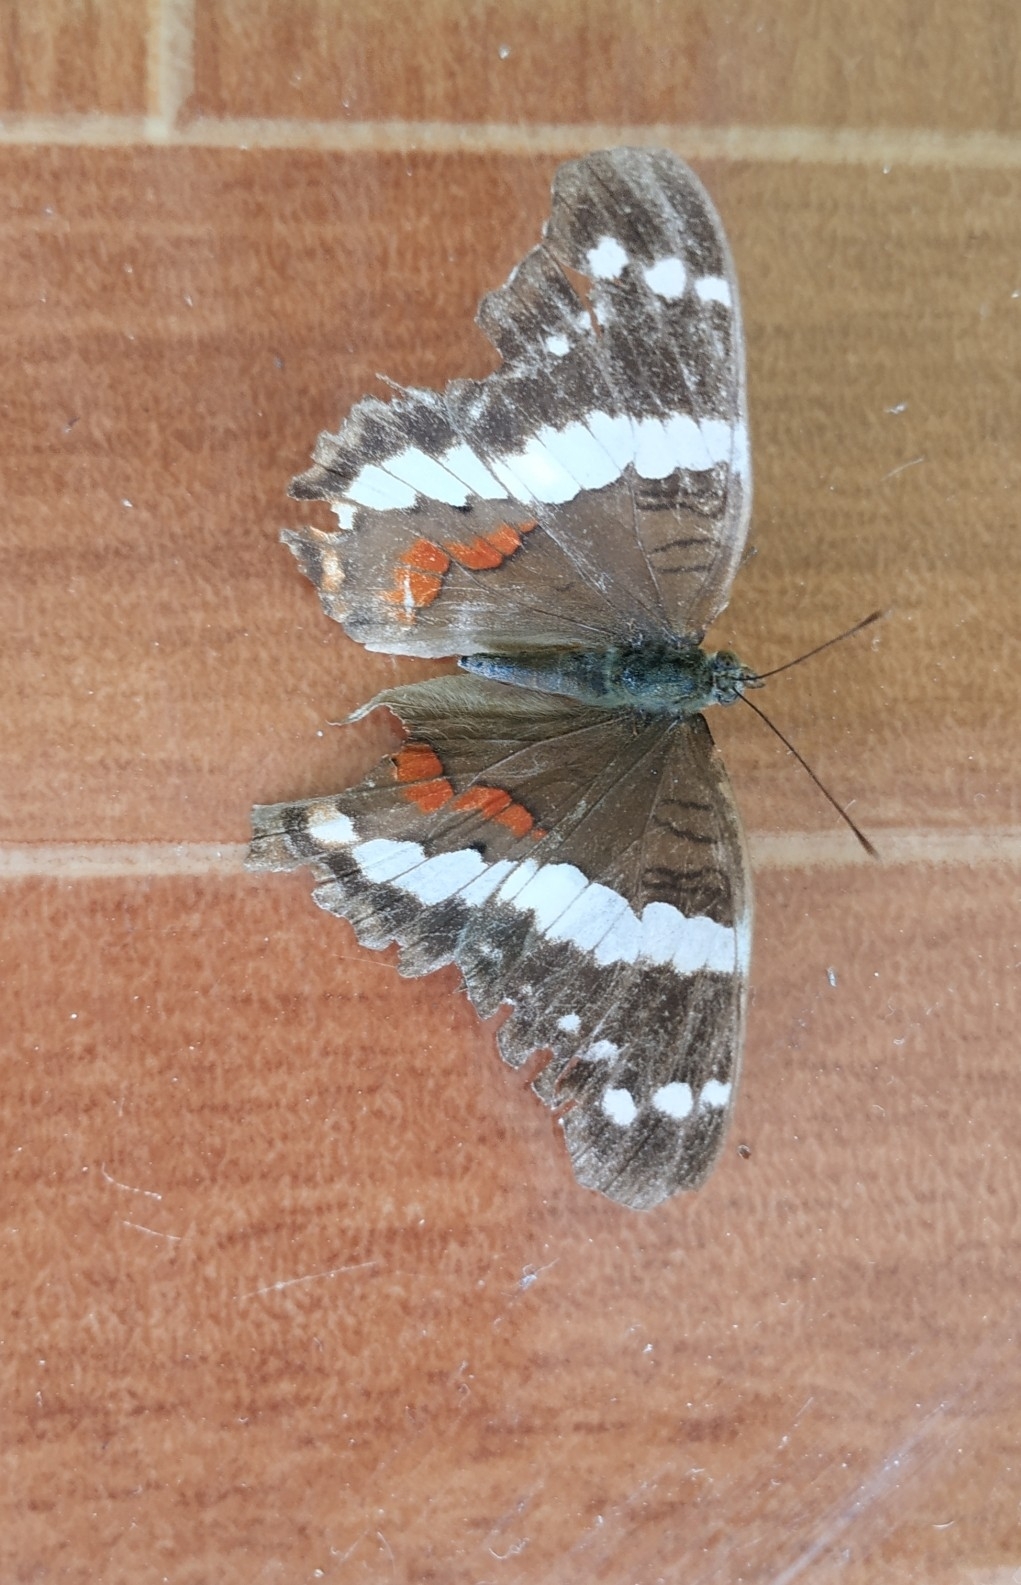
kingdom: Animalia
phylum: Arthropoda
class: Insecta
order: Lepidoptera
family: Nymphalidae
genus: Anartia
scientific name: Anartia fatima
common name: Banded peacock
